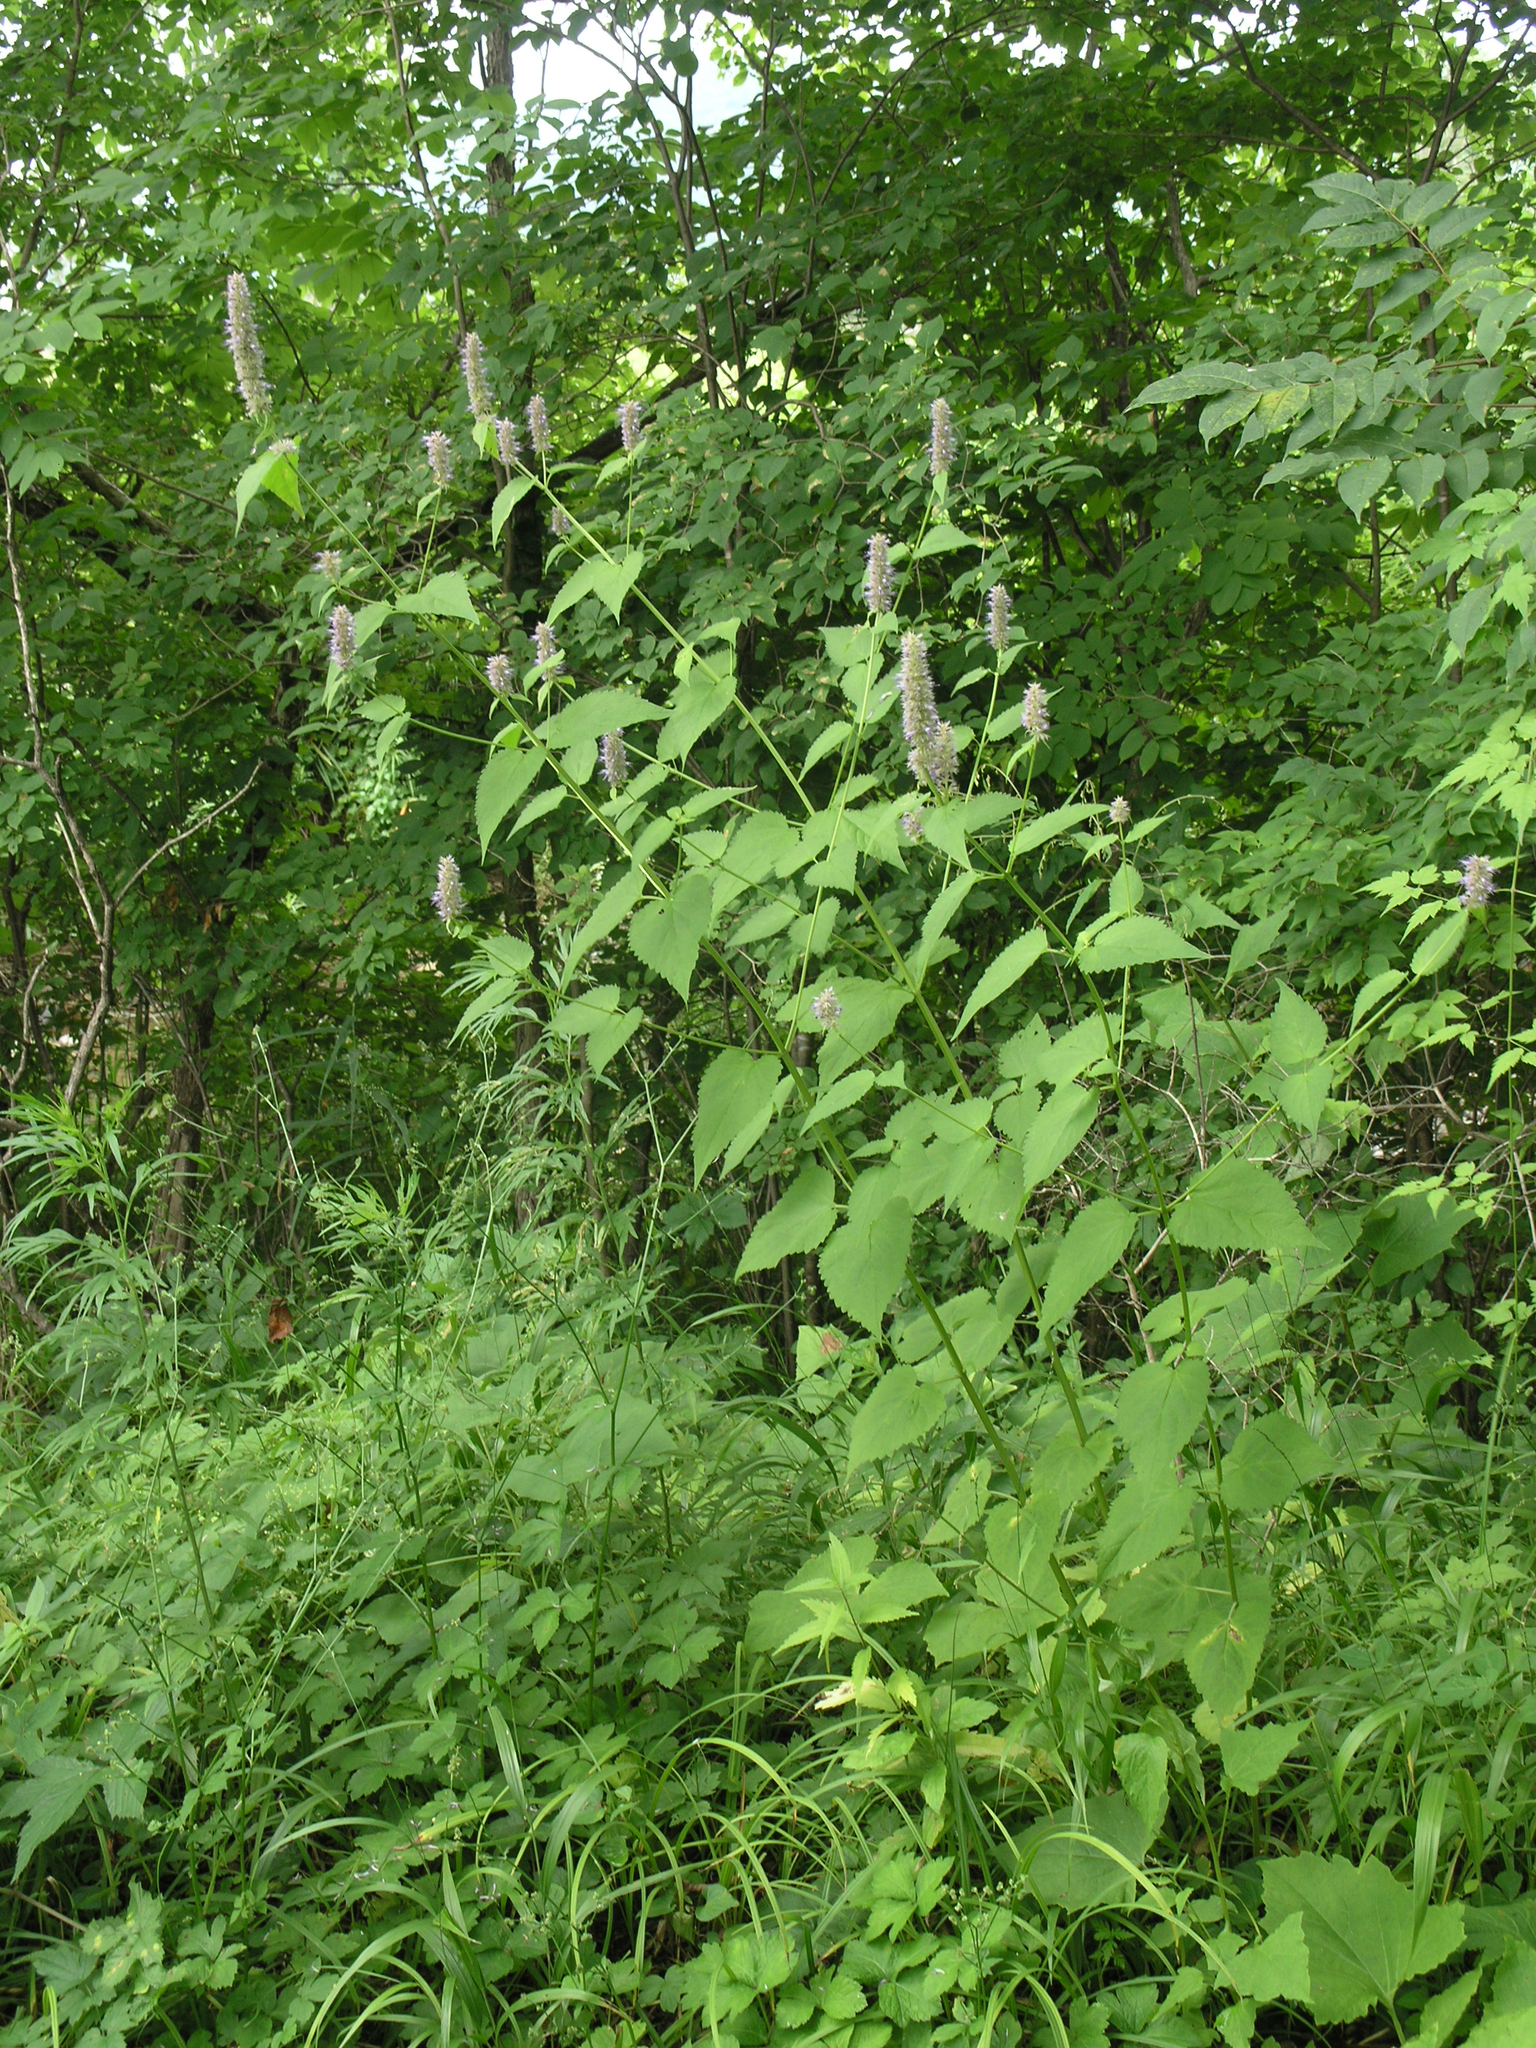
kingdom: Plantae
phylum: Tracheophyta
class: Magnoliopsida
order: Lamiales
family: Lamiaceae
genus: Agastache
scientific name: Agastache rugosa
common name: Mint
